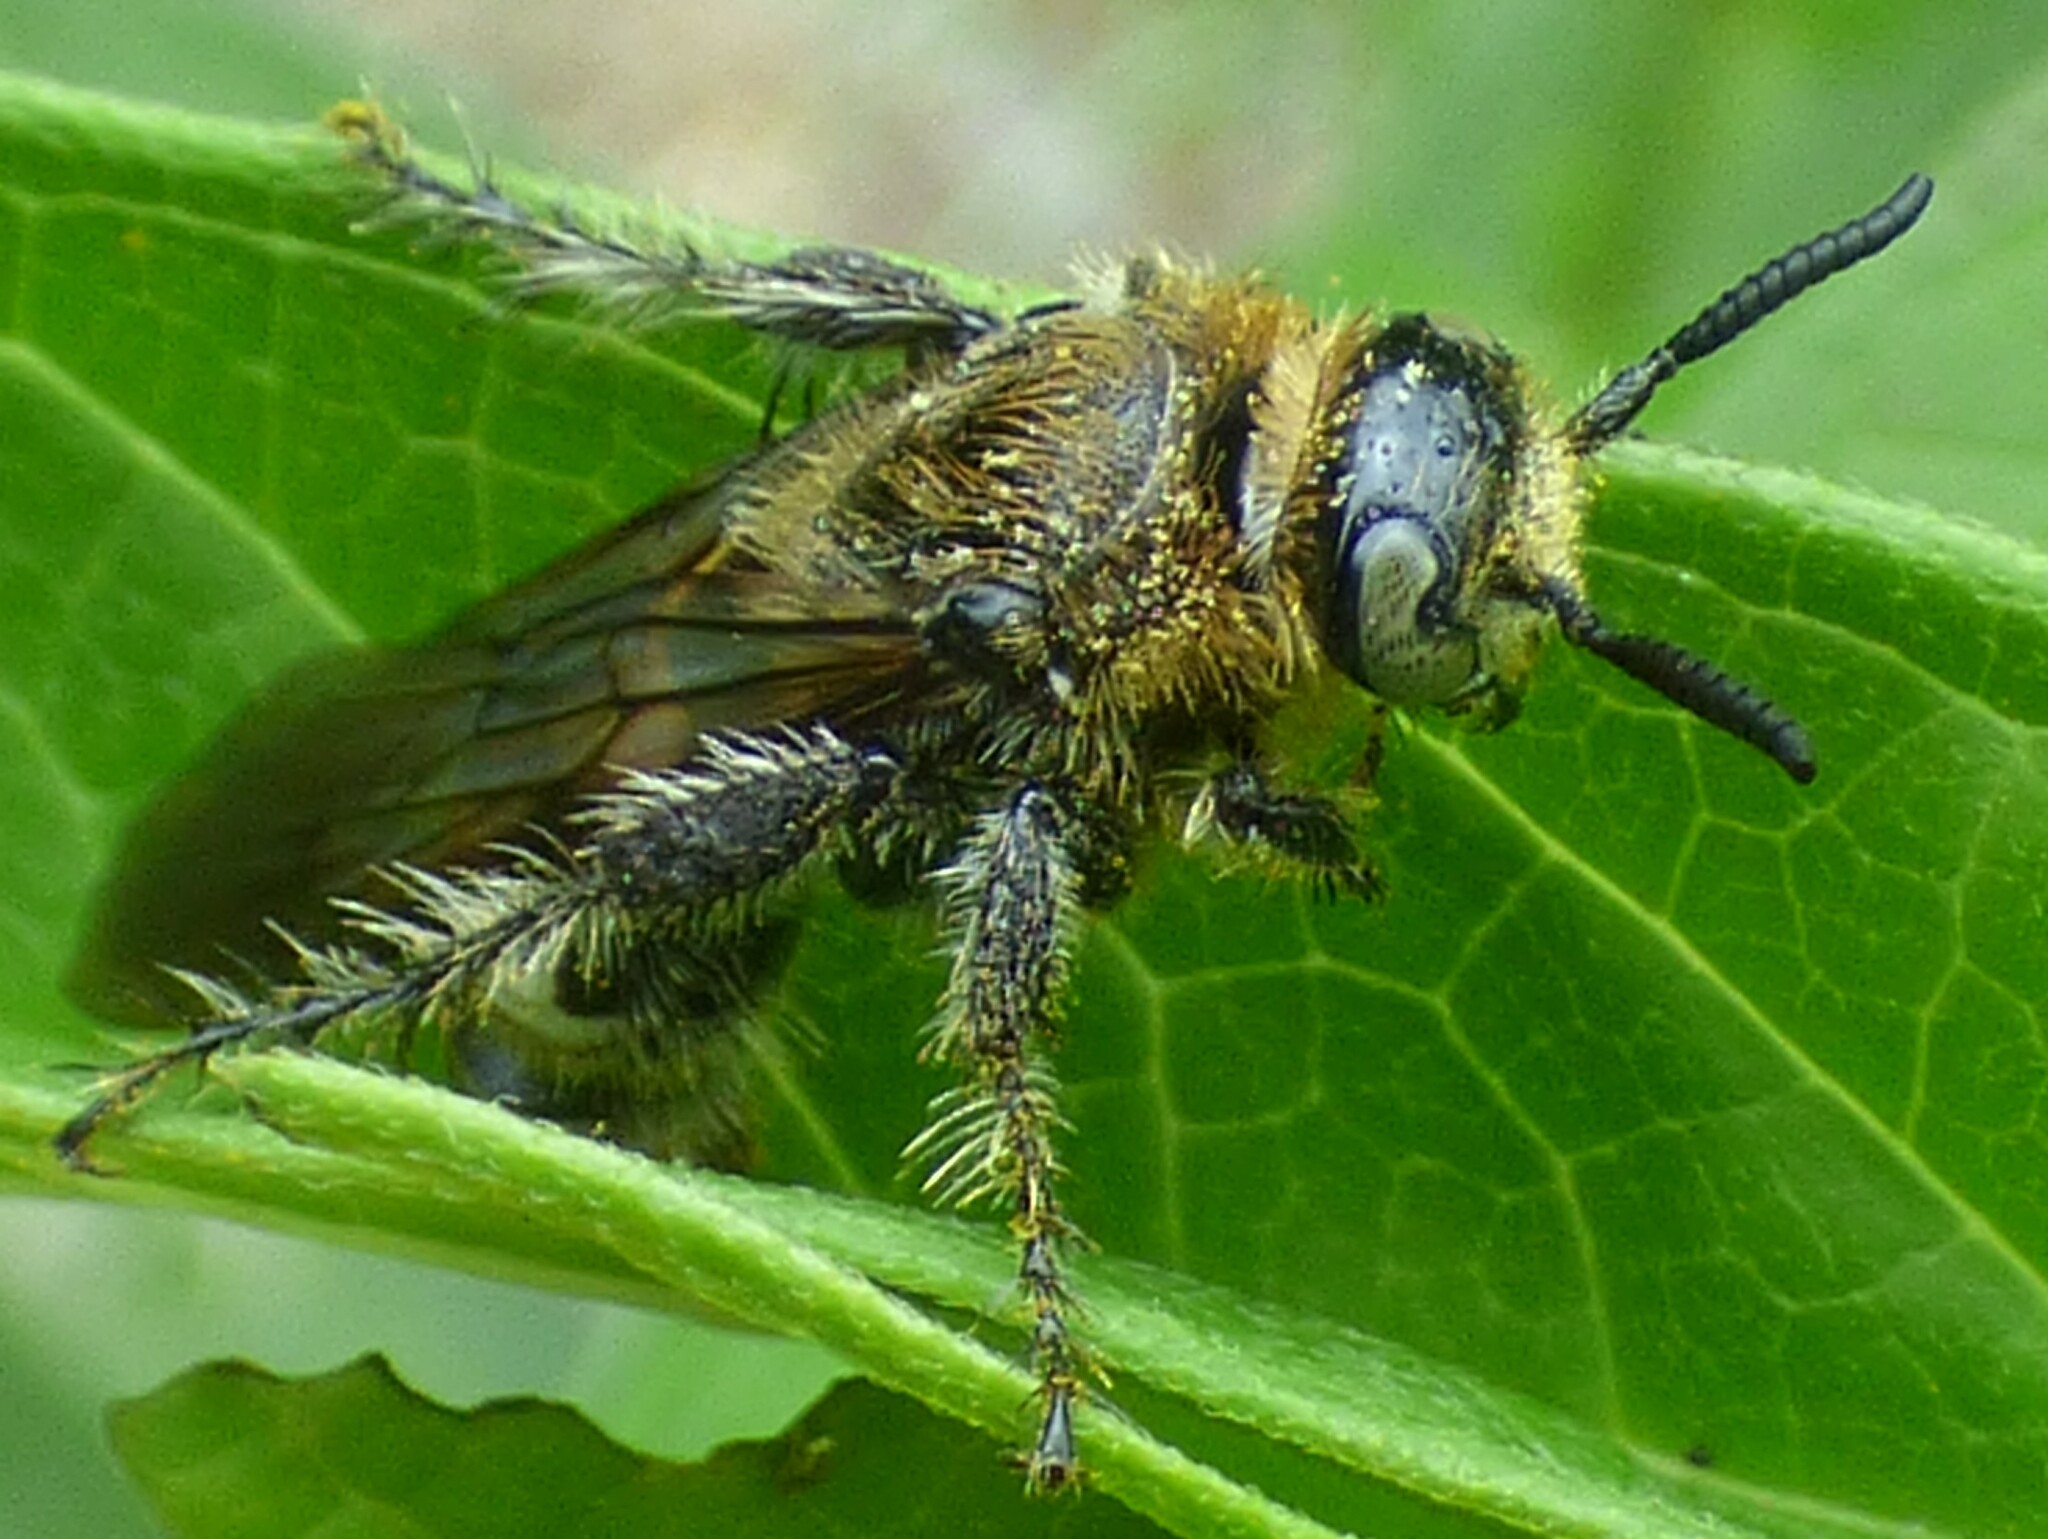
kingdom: Animalia
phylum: Arthropoda
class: Insecta
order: Hymenoptera
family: Scoliidae
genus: Dielis
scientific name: Dielis
